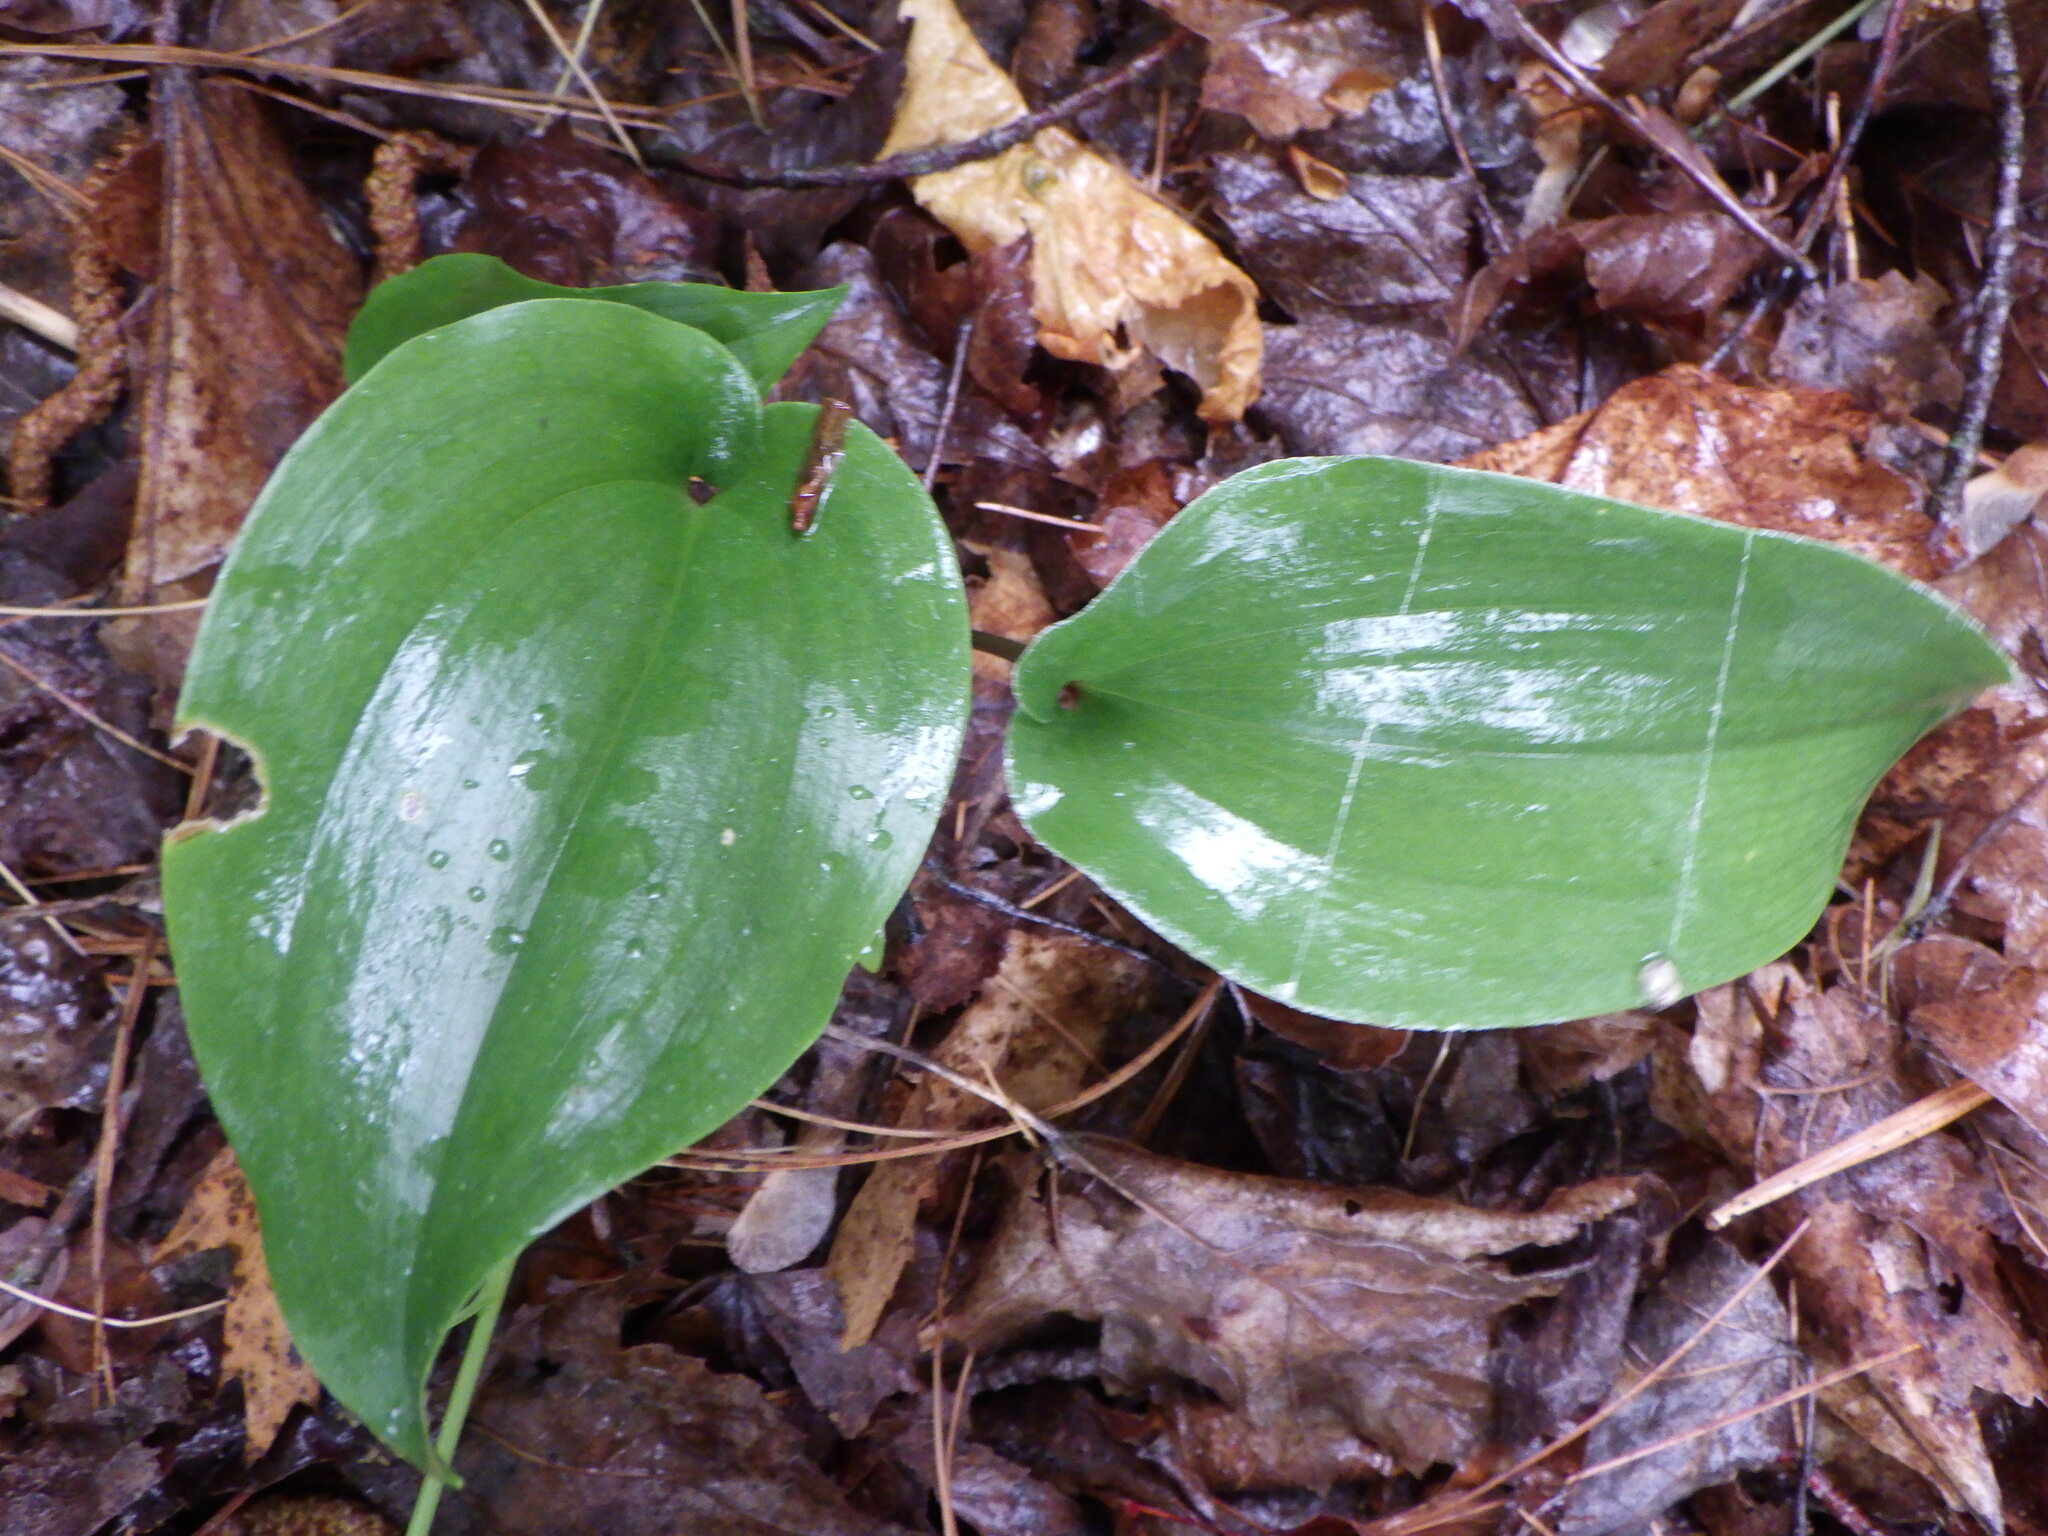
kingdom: Plantae
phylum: Tracheophyta
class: Liliopsida
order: Asparagales
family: Asparagaceae
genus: Maianthemum
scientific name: Maianthemum canadense
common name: False lily-of-the-valley
